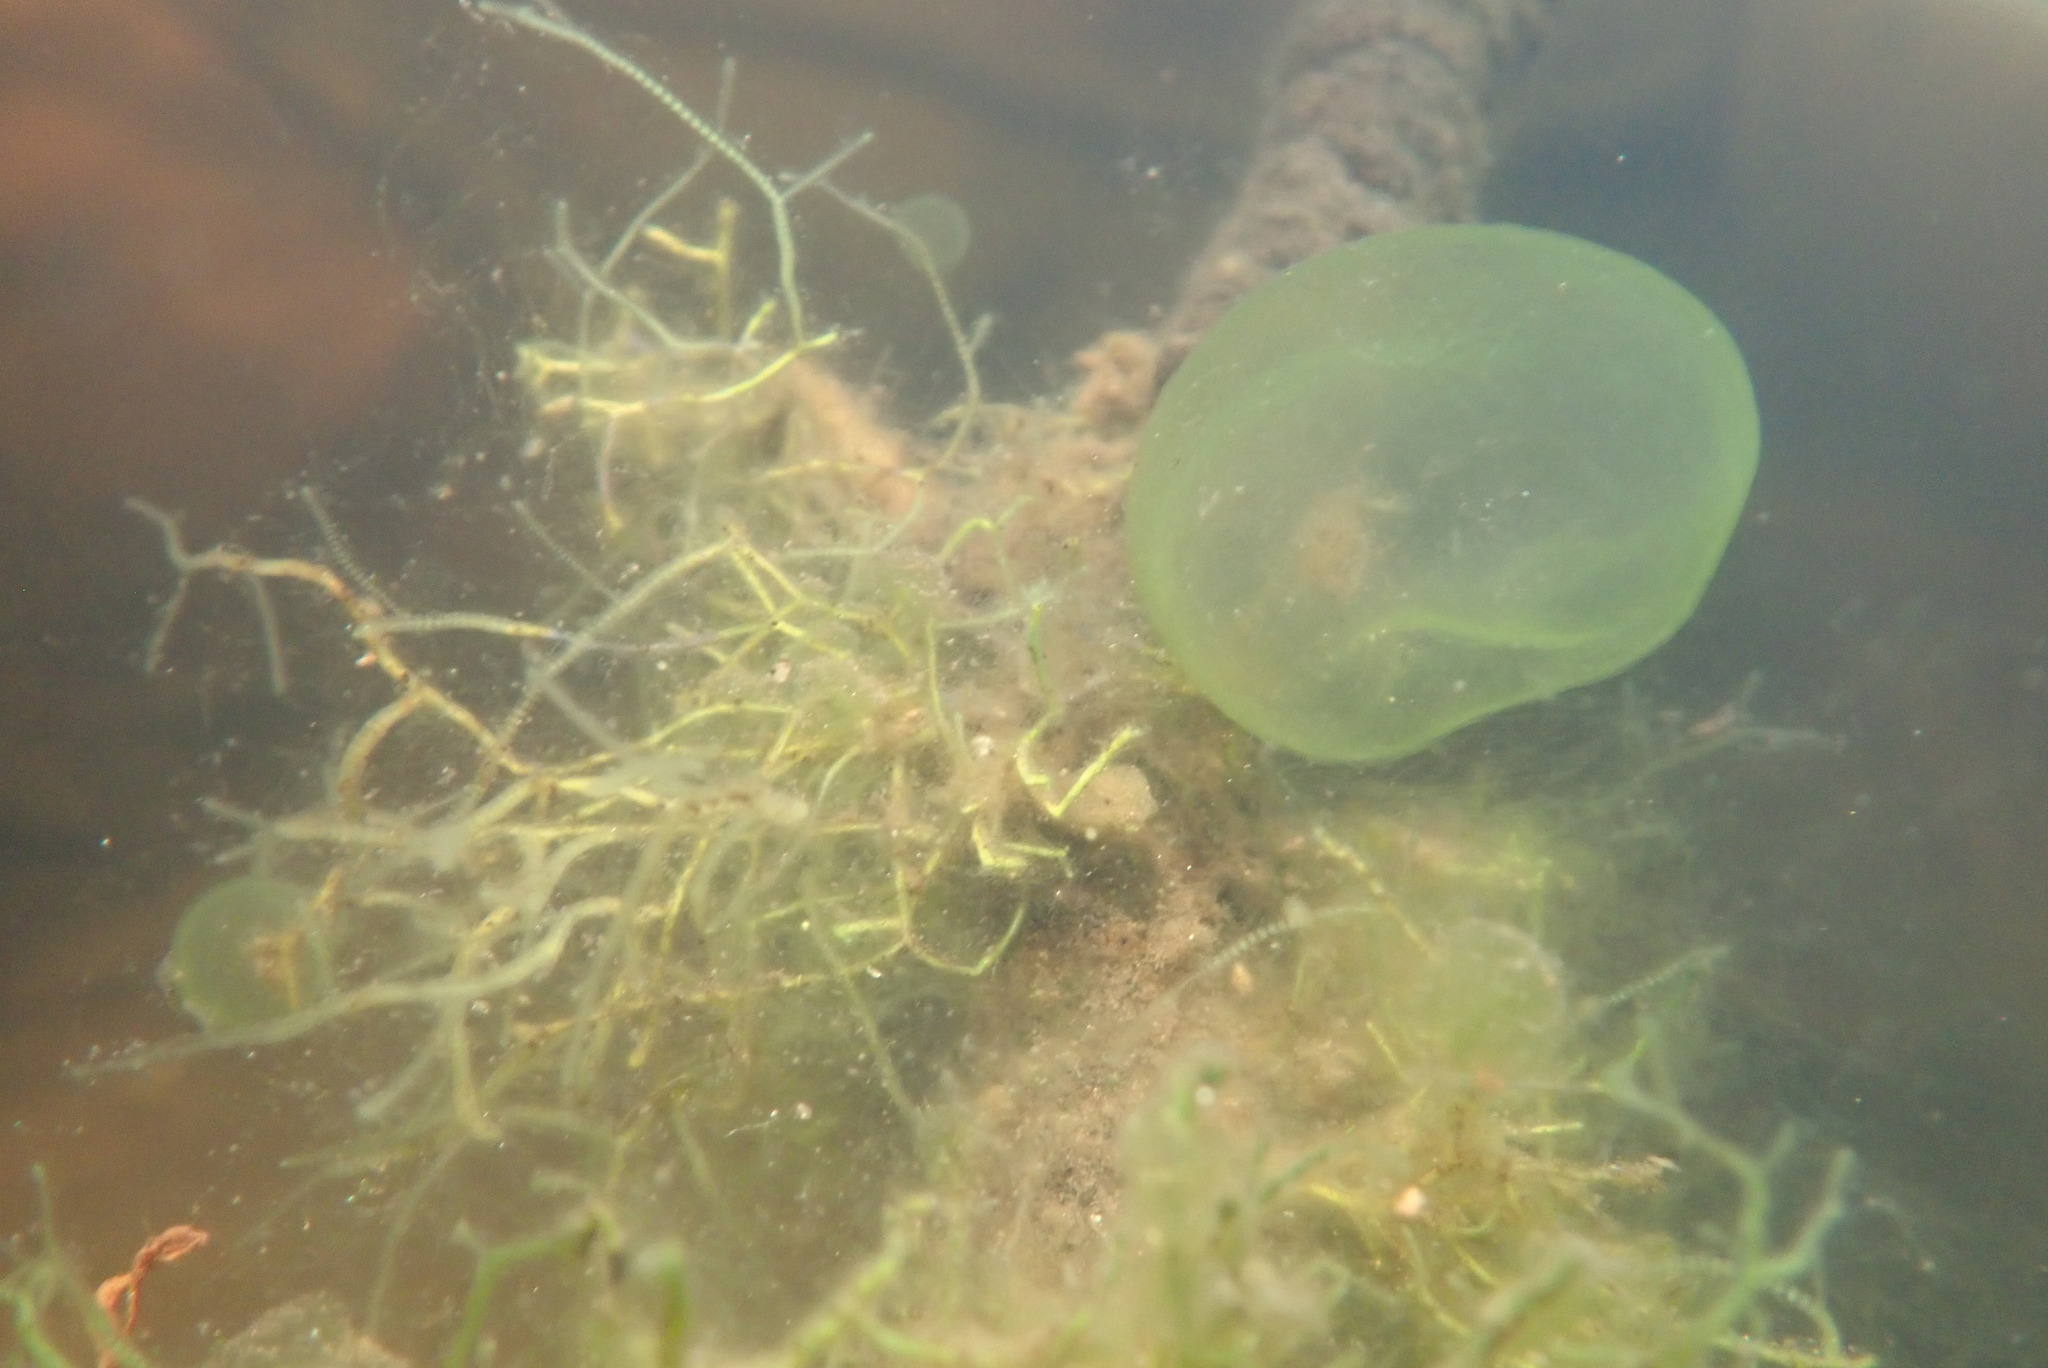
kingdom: Chromista
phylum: Ciliophora
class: Oligohymenophorea
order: Peritrichida
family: Ophrydiidae
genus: Ophrydium
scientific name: Ophrydium
